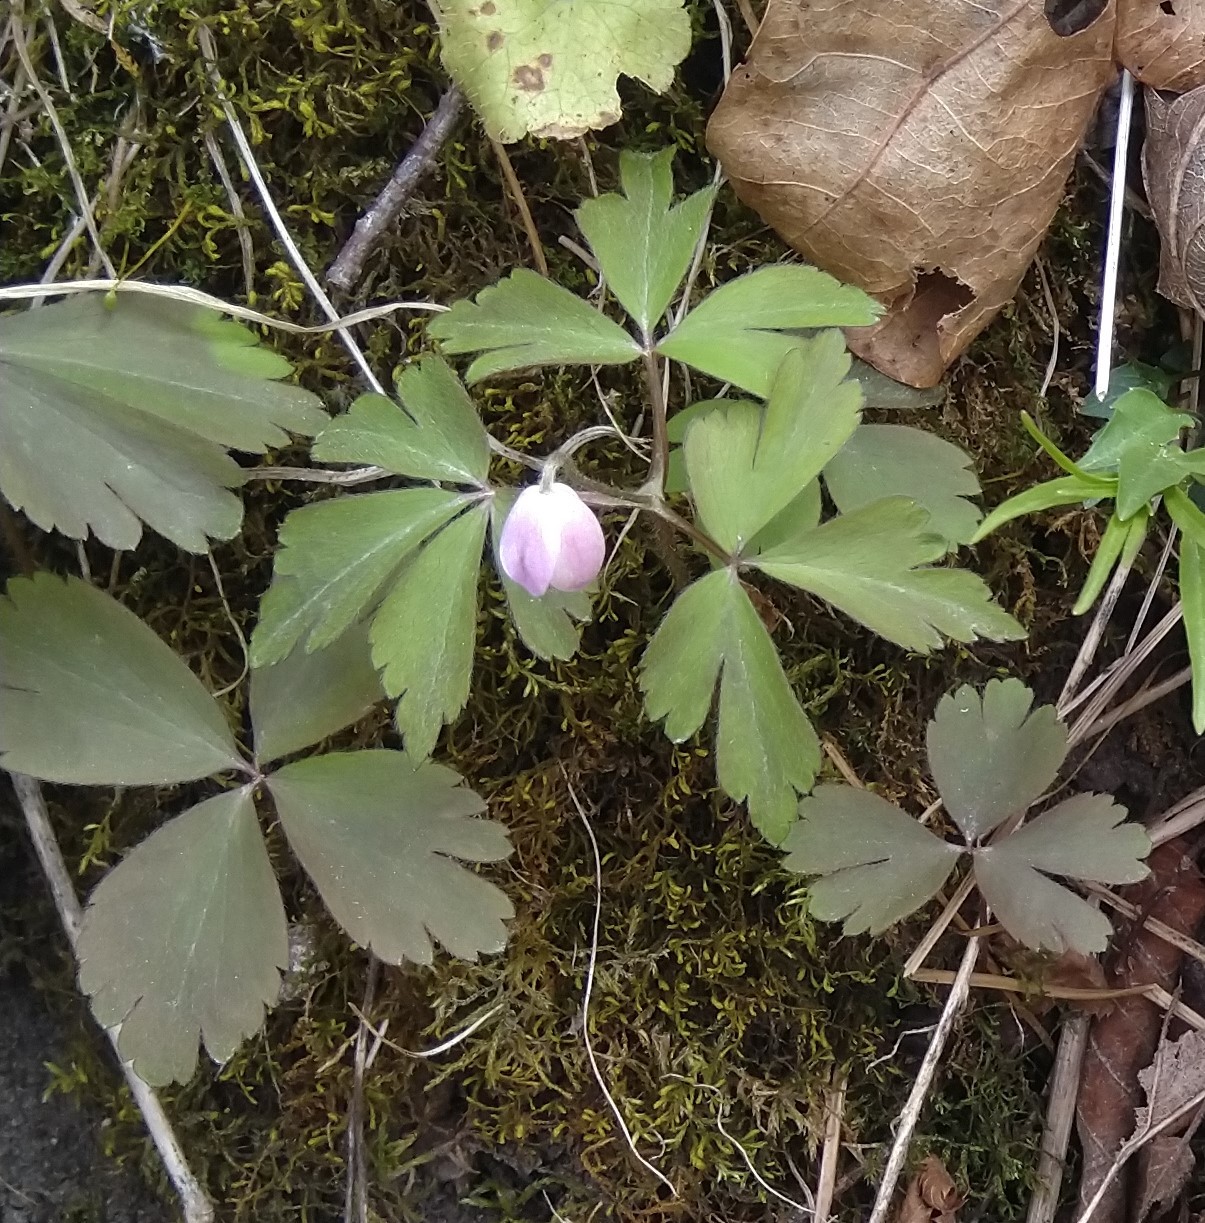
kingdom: Plantae
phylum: Tracheophyta
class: Magnoliopsida
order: Ranunculales
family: Ranunculaceae
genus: Anemone
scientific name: Anemone quinquefolia
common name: Wood anemone
